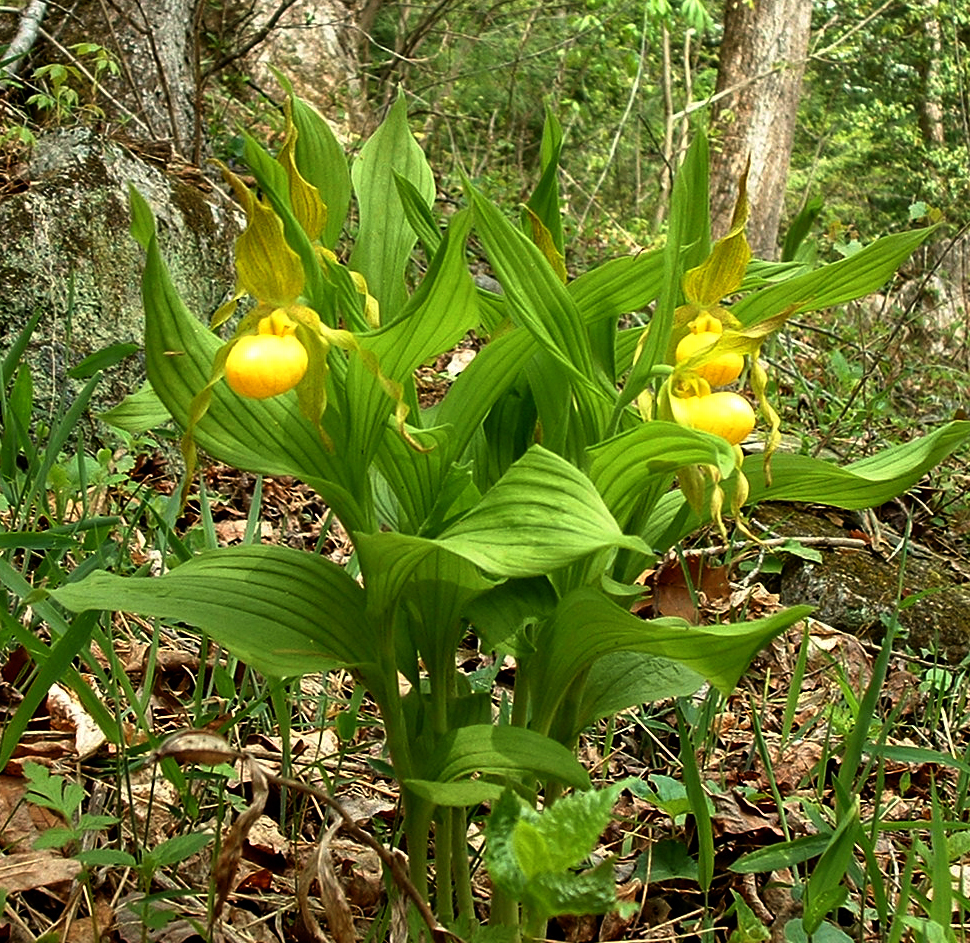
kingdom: Plantae
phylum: Tracheophyta
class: Liliopsida
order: Asparagales
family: Orchidaceae
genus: Cypripedium
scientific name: Cypripedium parviflorum
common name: American yellow lady's-slipper
